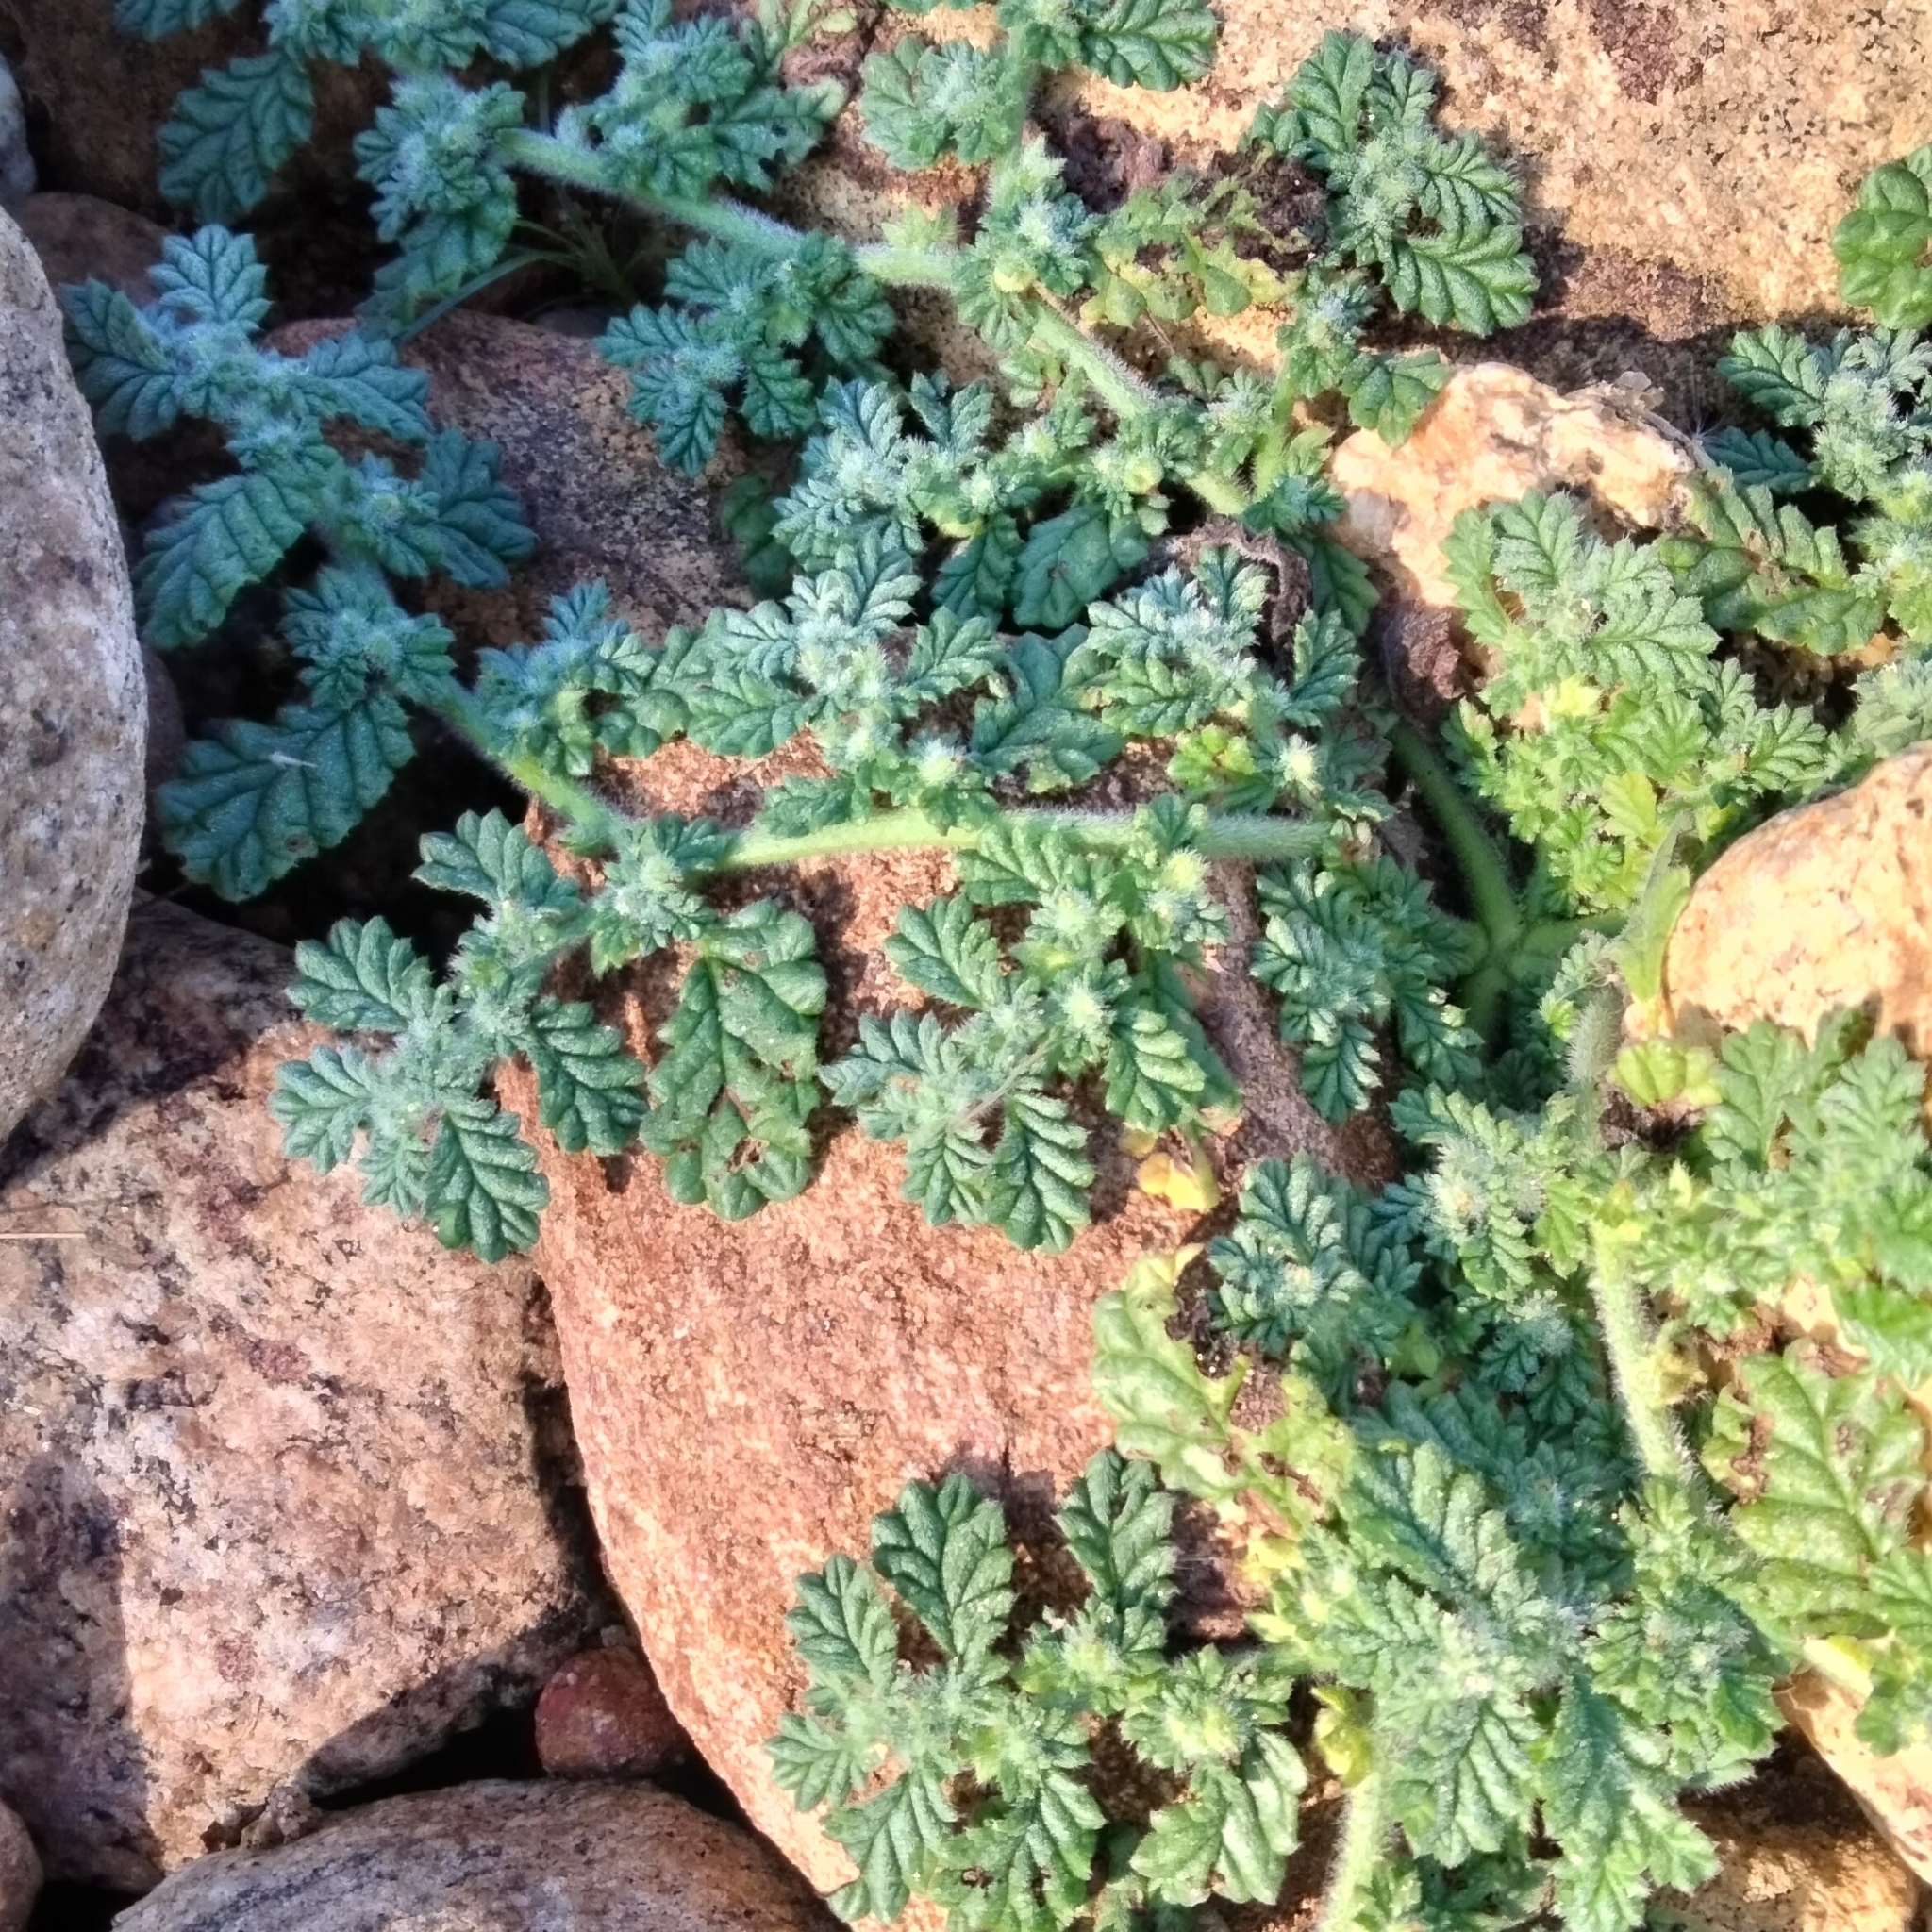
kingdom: Plantae
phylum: Tracheophyta
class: Magnoliopsida
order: Boraginales
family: Coldeniaceae
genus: Coldenia
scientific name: Coldenia procumbens
